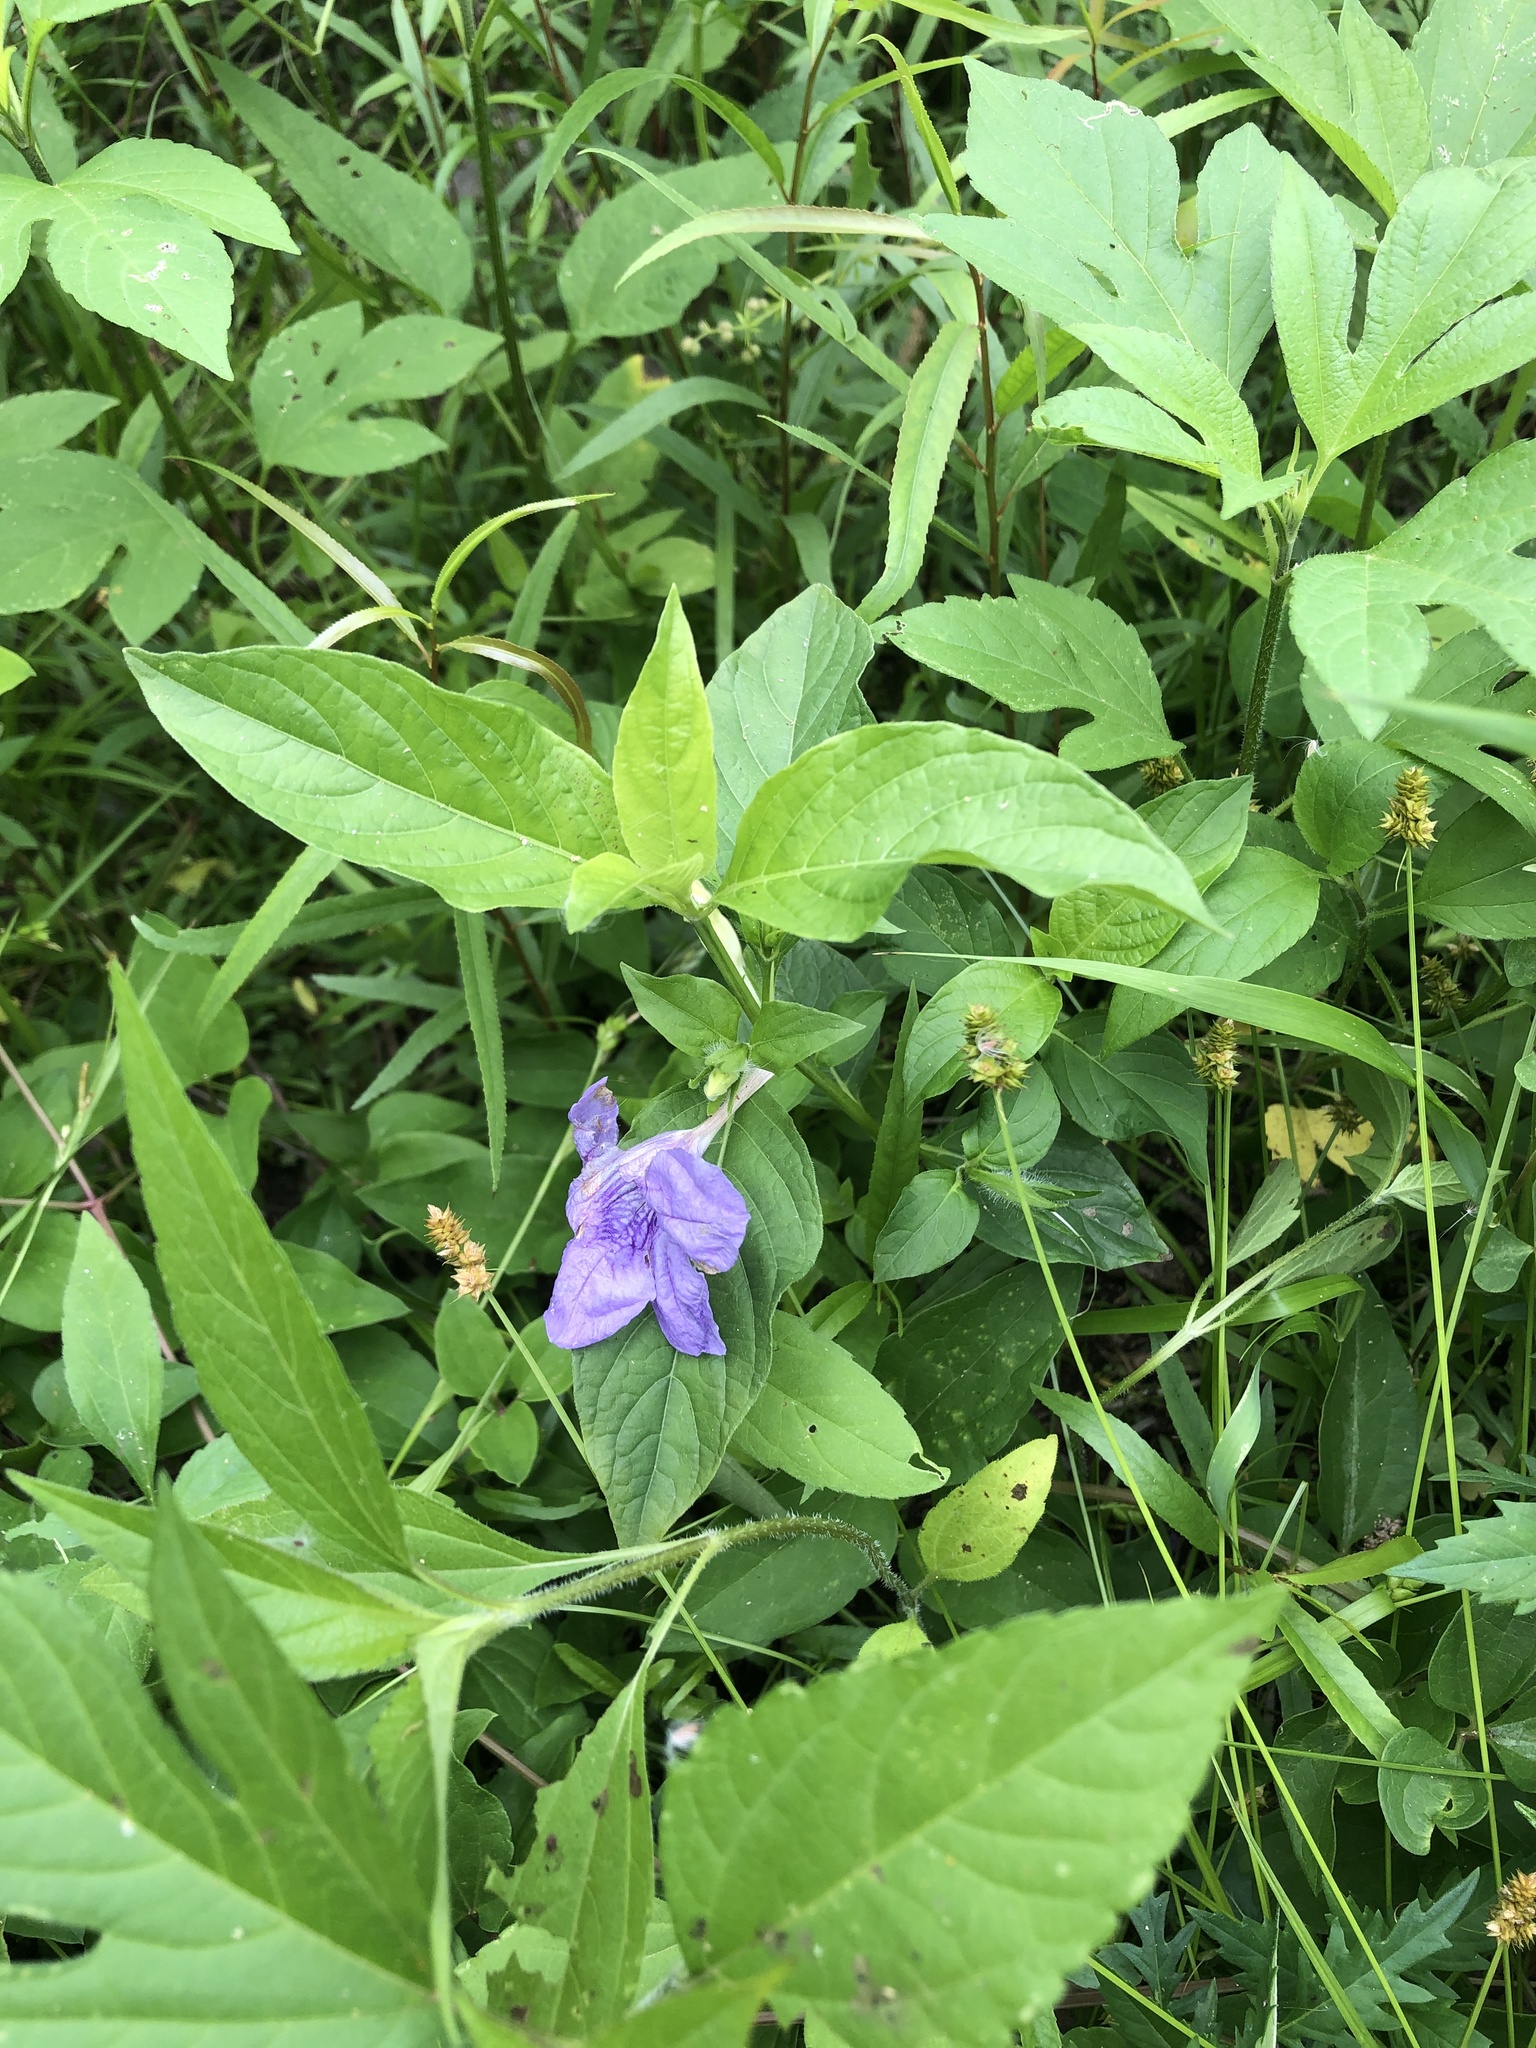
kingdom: Plantae
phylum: Tracheophyta
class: Magnoliopsida
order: Lamiales
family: Acanthaceae
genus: Ruellia
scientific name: Ruellia strepens
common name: Limestone wild petunia
